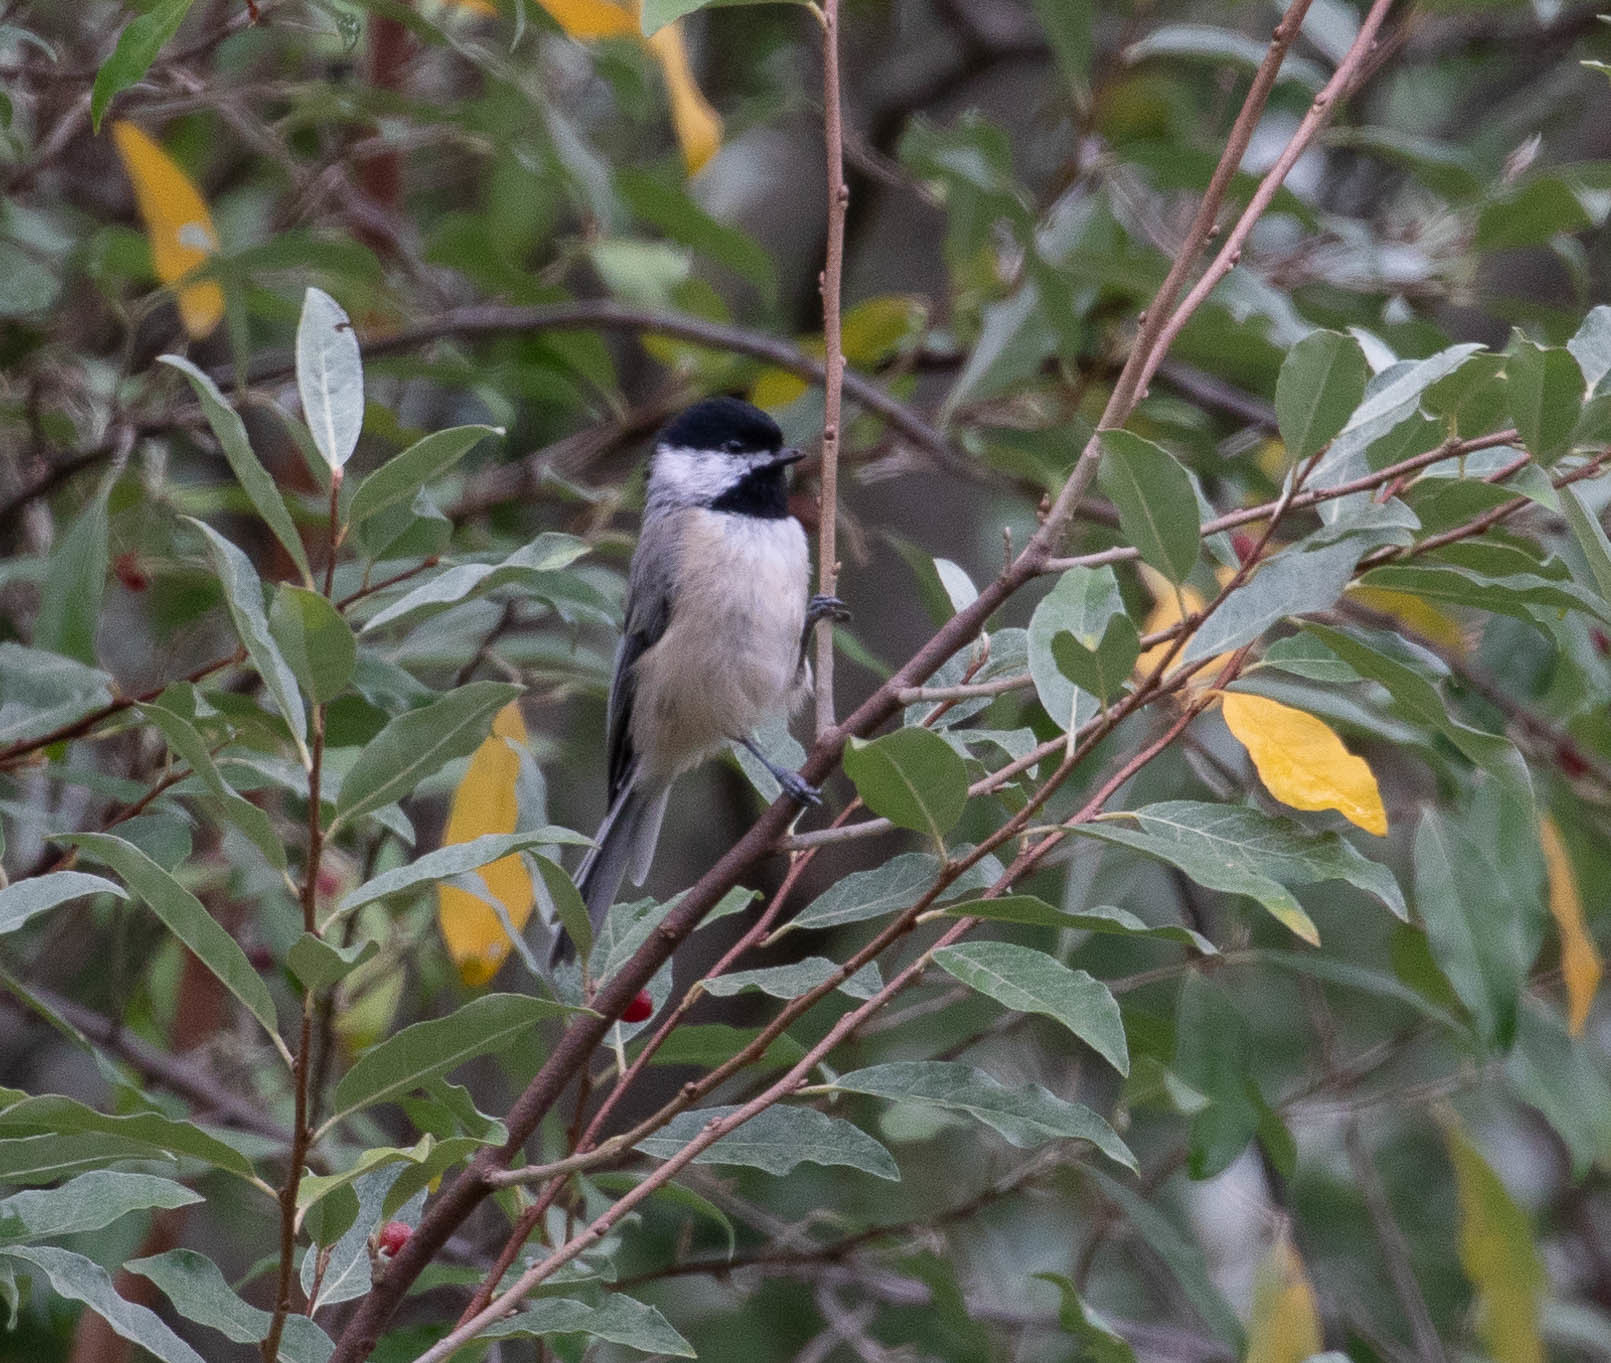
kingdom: Animalia
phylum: Chordata
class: Aves
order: Passeriformes
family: Paridae
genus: Poecile
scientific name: Poecile carolinensis
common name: Carolina chickadee
